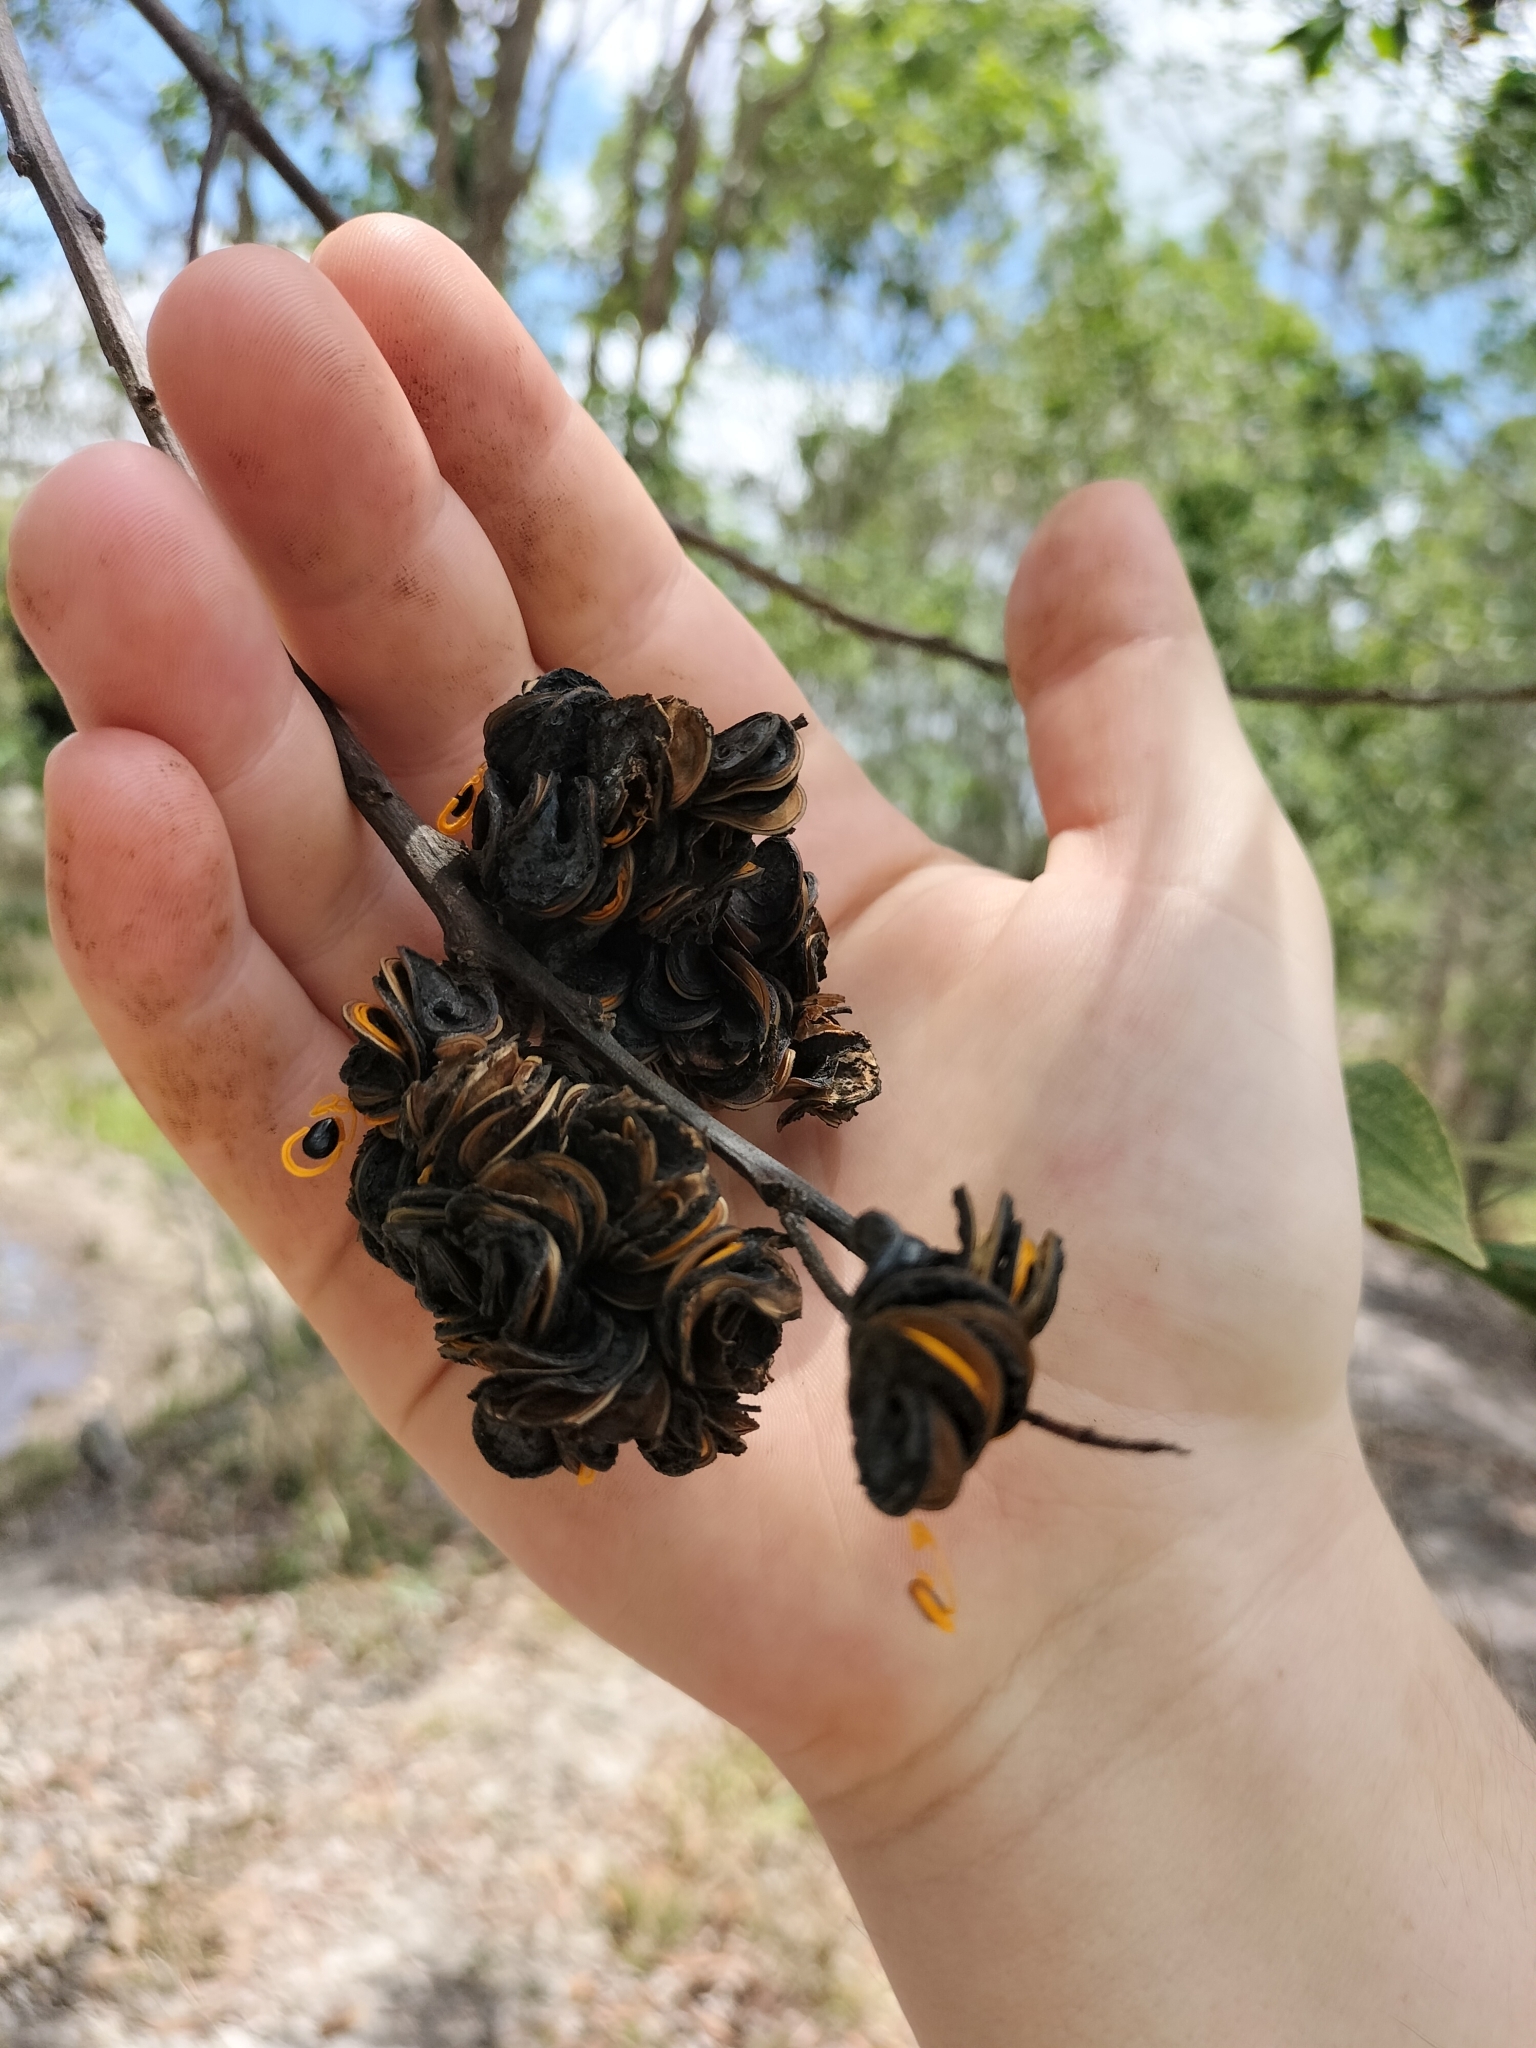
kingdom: Plantae
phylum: Tracheophyta
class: Magnoliopsida
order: Fabales
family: Fabaceae
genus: Acacia
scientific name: Acacia cincinnata
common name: Daintree wattle
